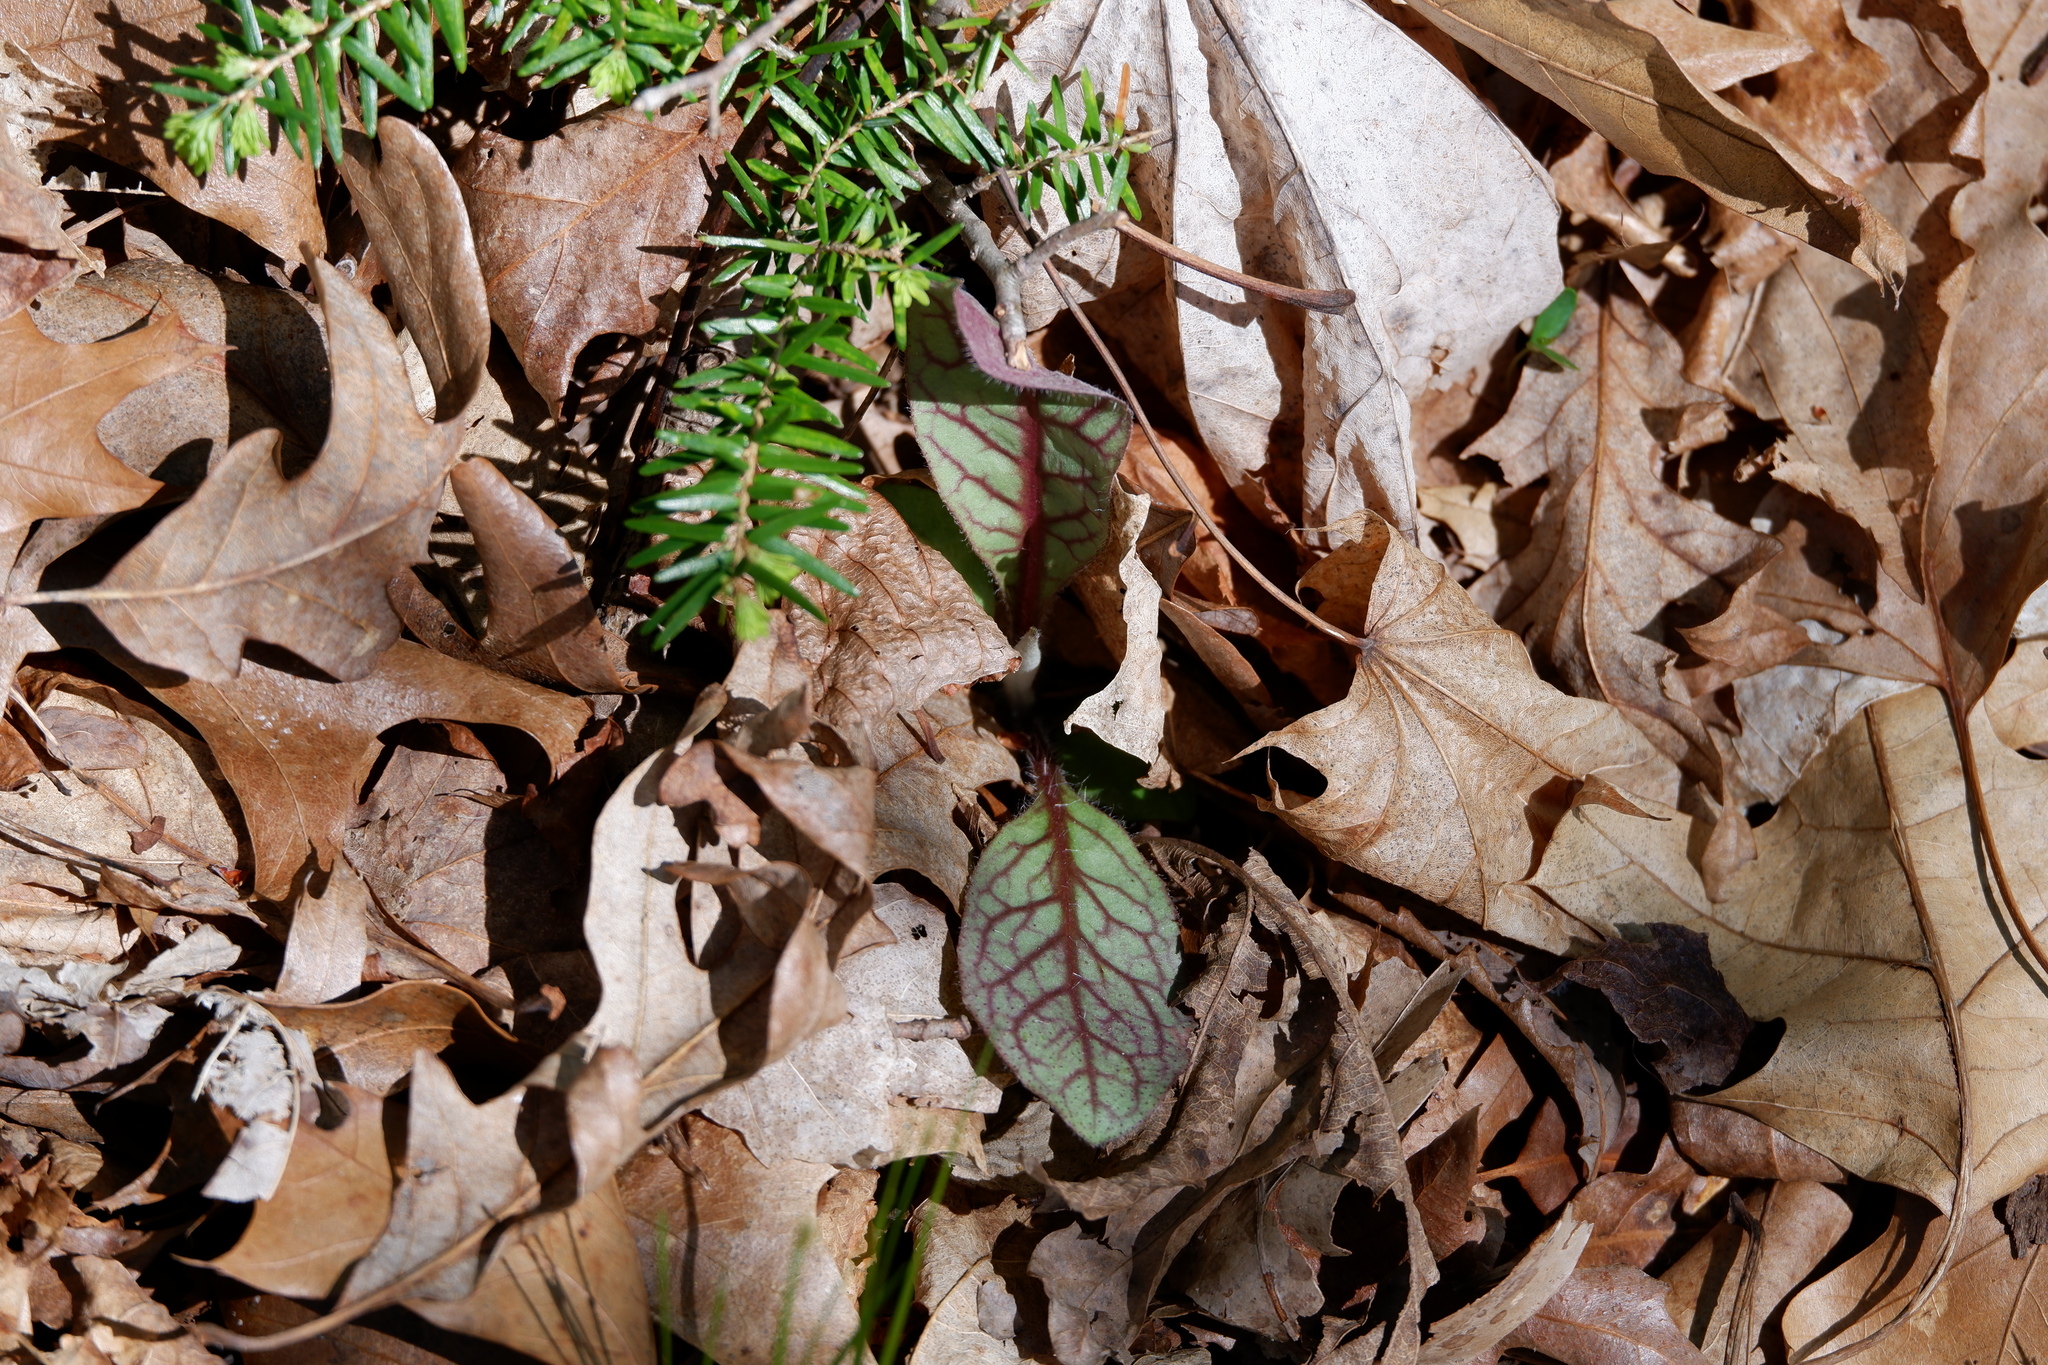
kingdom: Plantae
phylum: Tracheophyta
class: Magnoliopsida
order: Asterales
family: Asteraceae
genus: Hieracium
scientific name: Hieracium venosum
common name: Rattlesnake hawkweed
